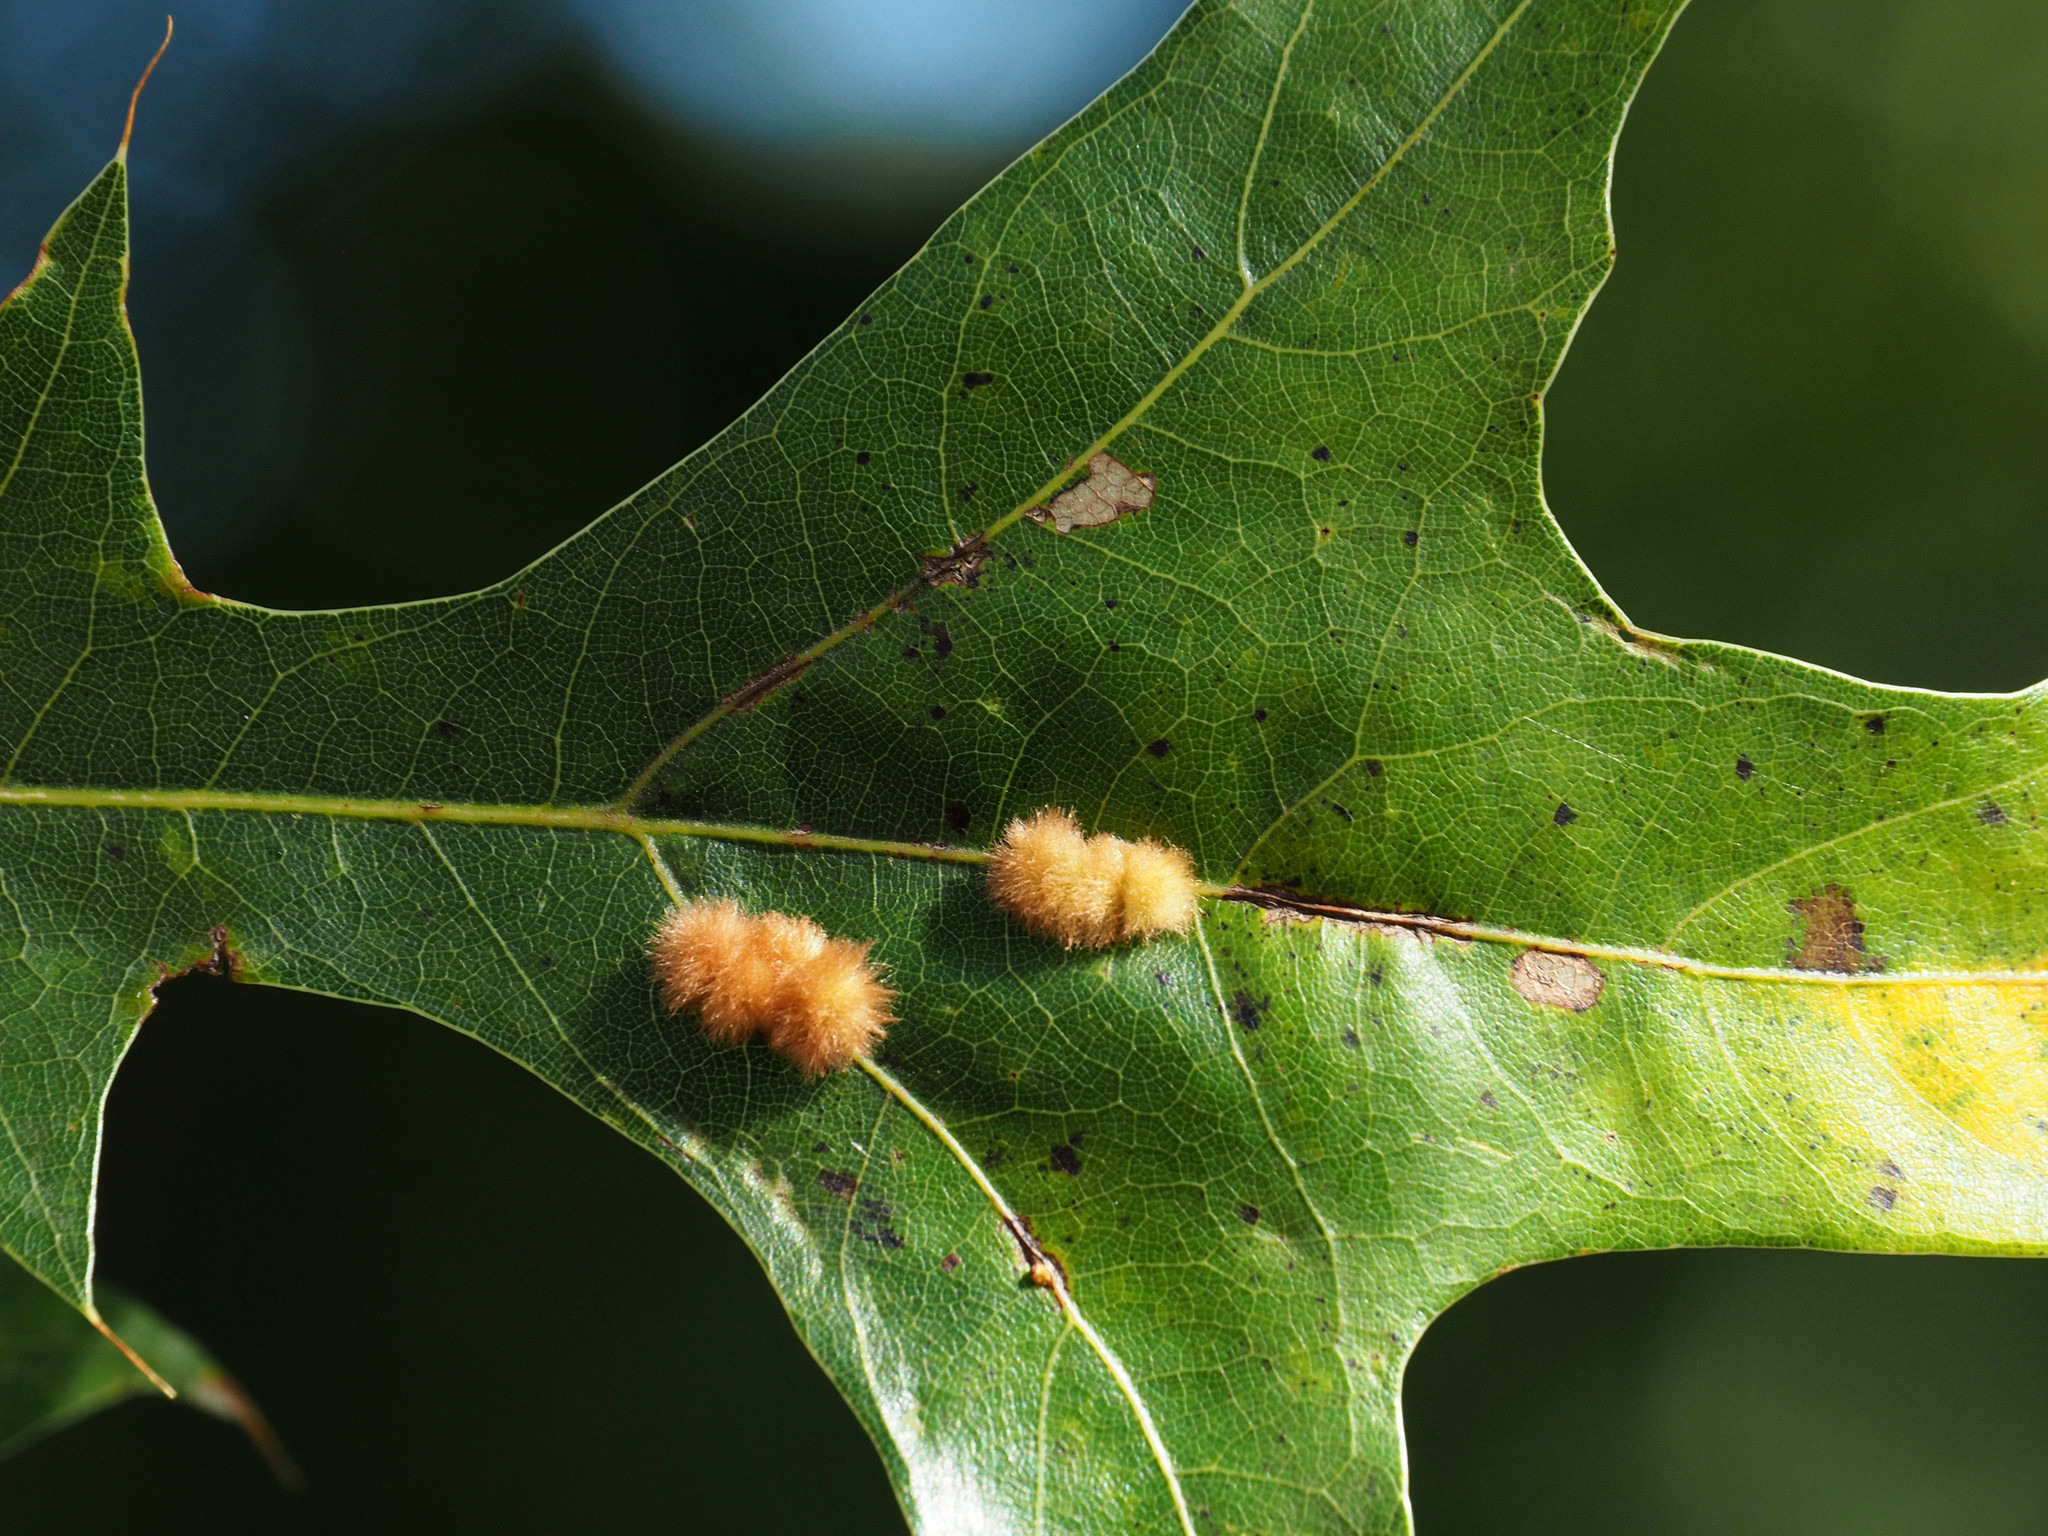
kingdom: Animalia
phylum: Arthropoda
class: Insecta
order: Hymenoptera
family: Cynipidae
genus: Callirhytis
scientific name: Callirhytis
